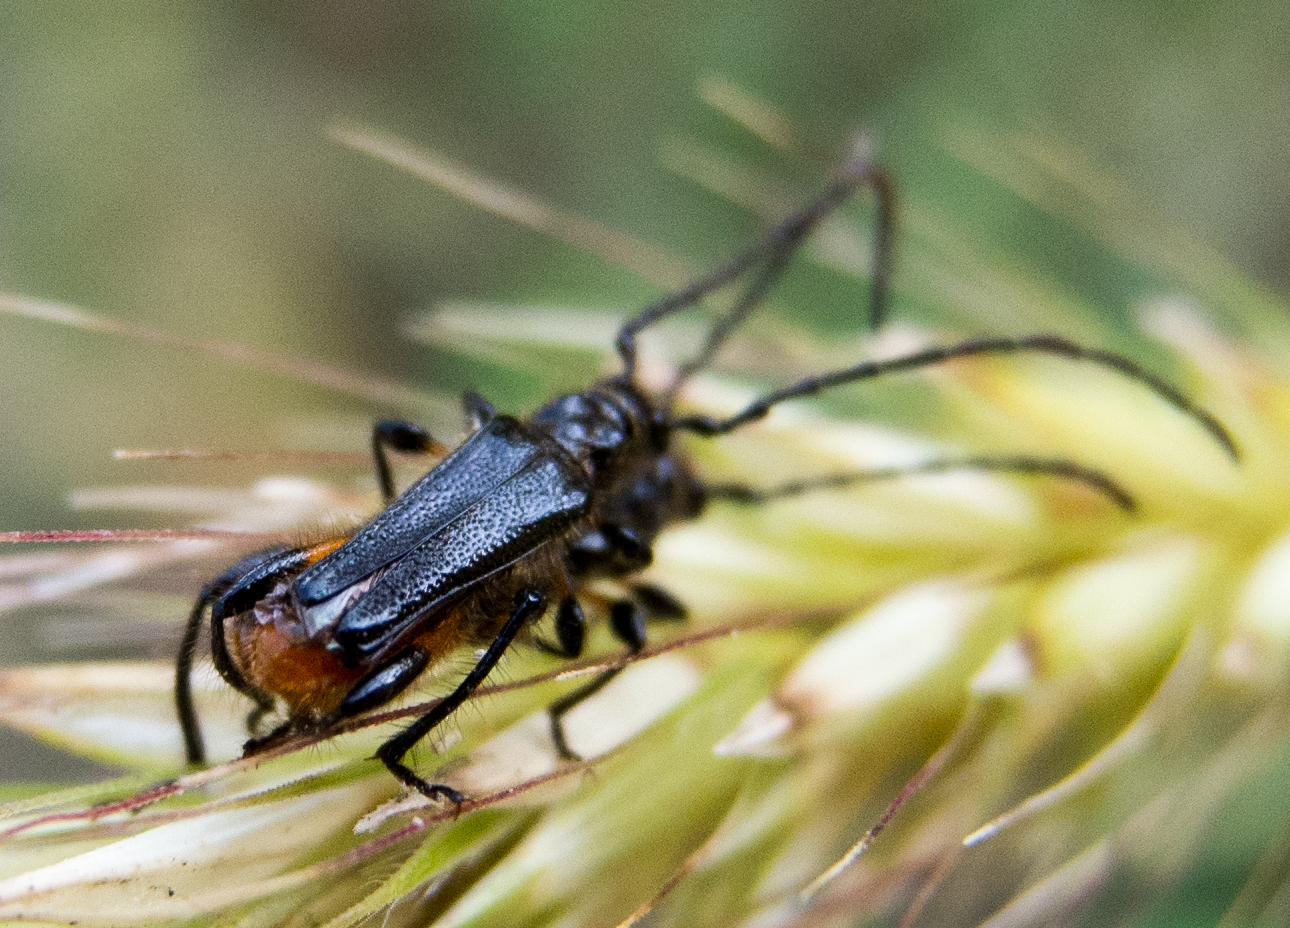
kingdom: Animalia
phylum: Arthropoda
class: Insecta
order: Coleoptera
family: Cerambycidae
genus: Callimus
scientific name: Callimus femoratus
